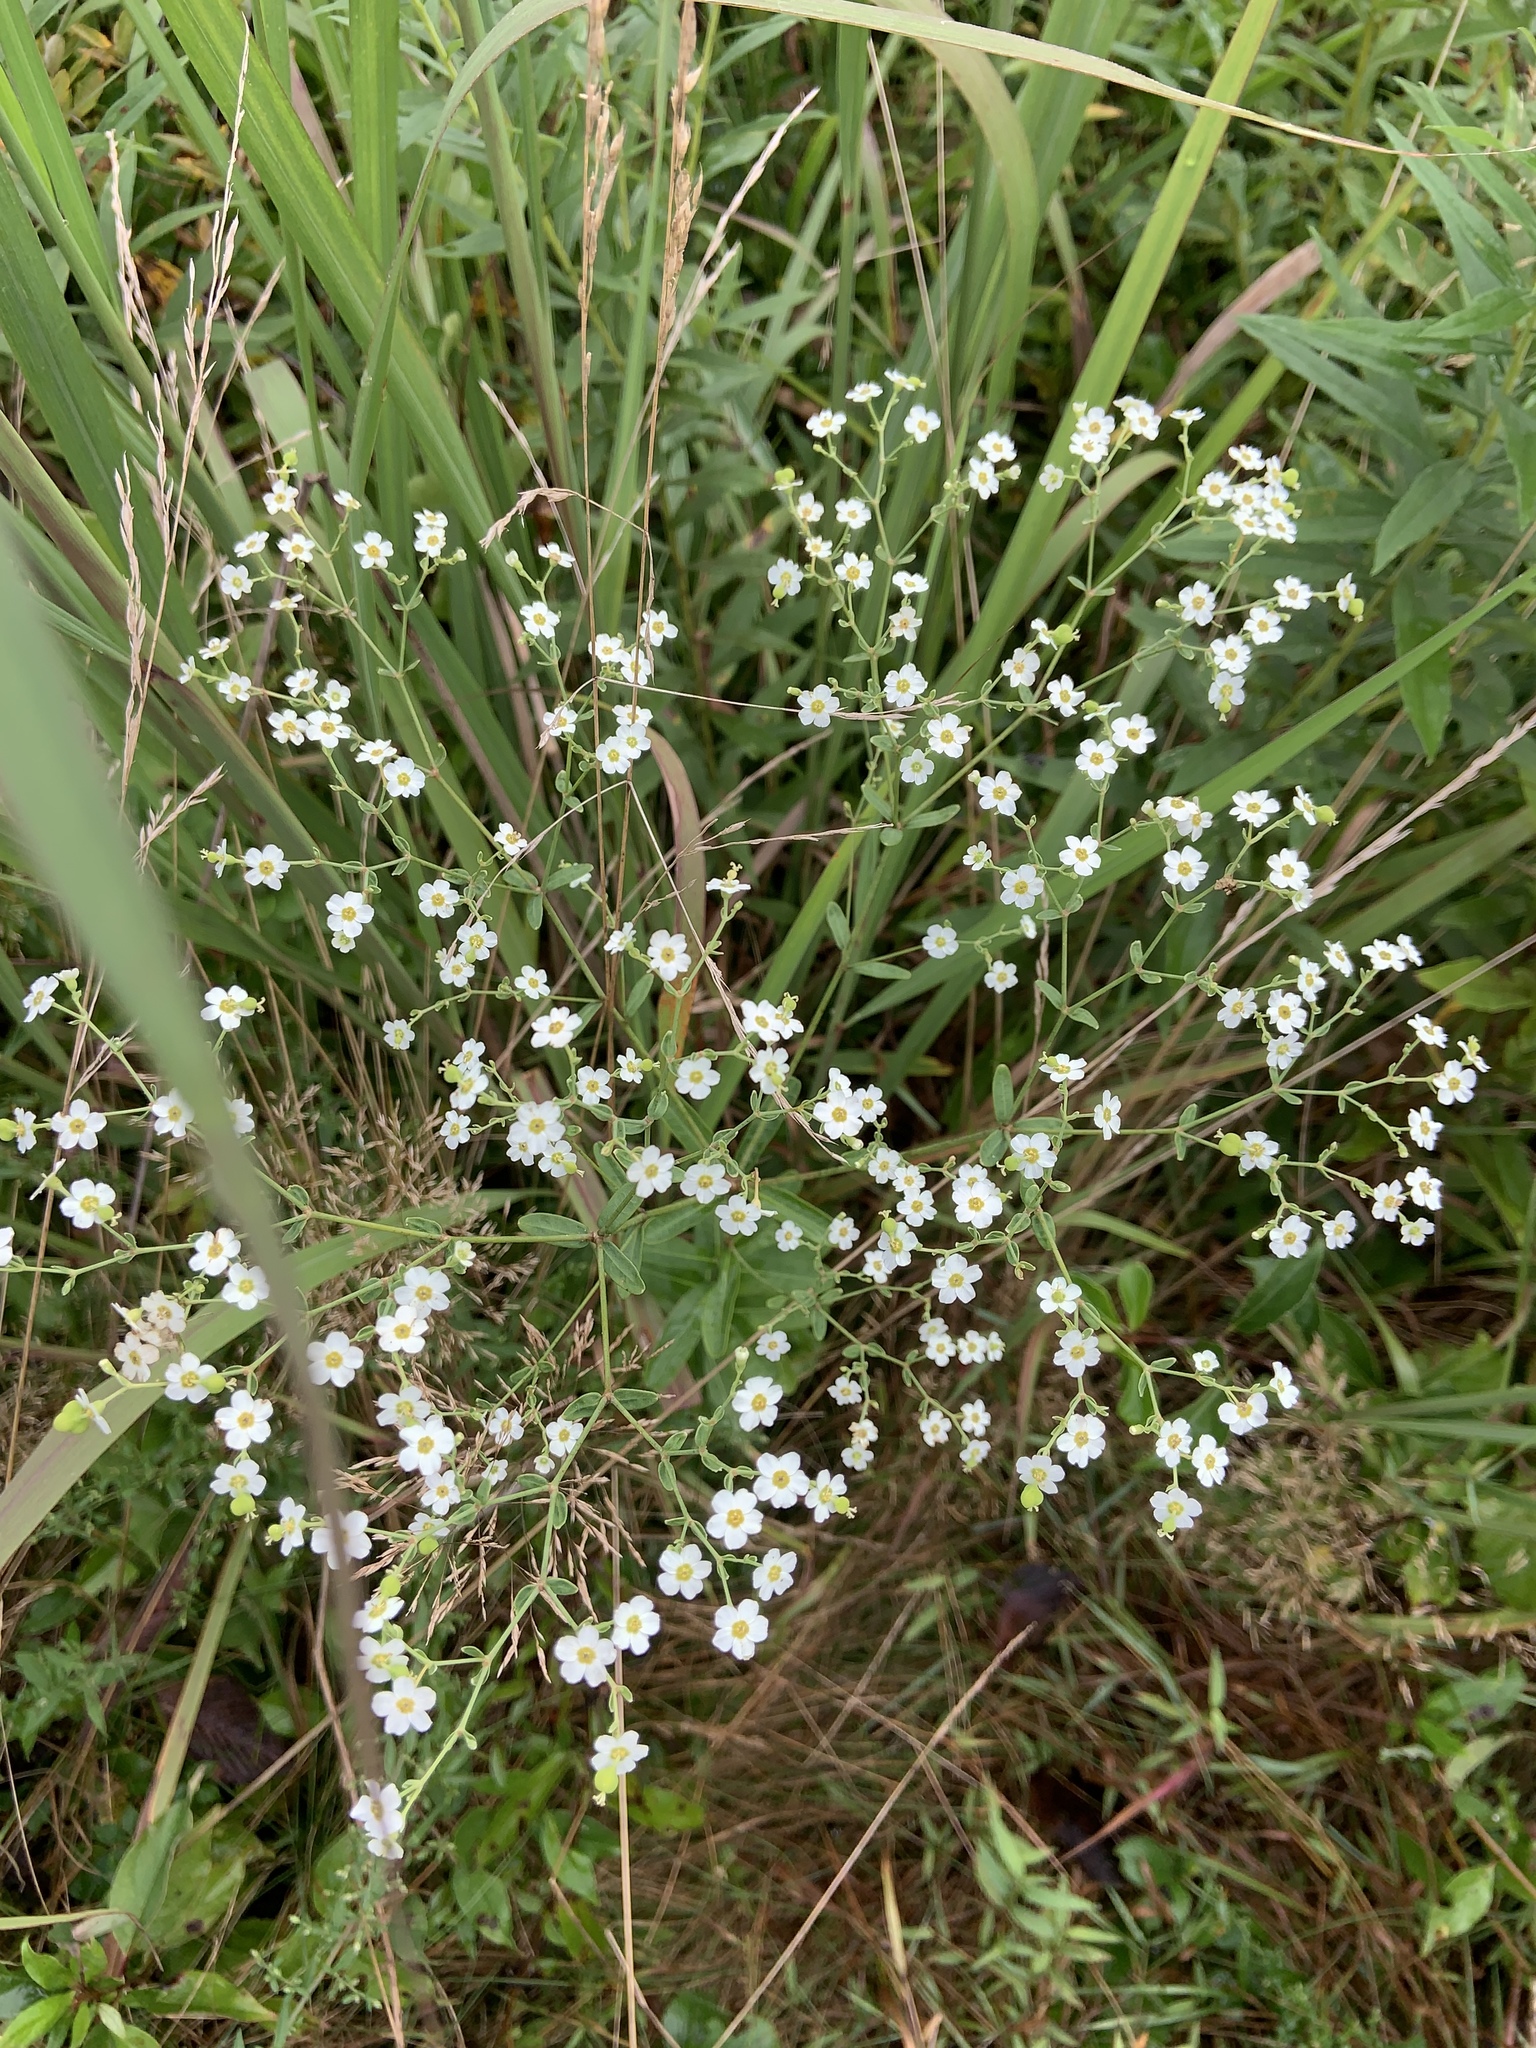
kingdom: Plantae
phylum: Tracheophyta
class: Magnoliopsida
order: Malpighiales
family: Euphorbiaceae
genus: Euphorbia
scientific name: Euphorbia corollata
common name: Flowering spurge
